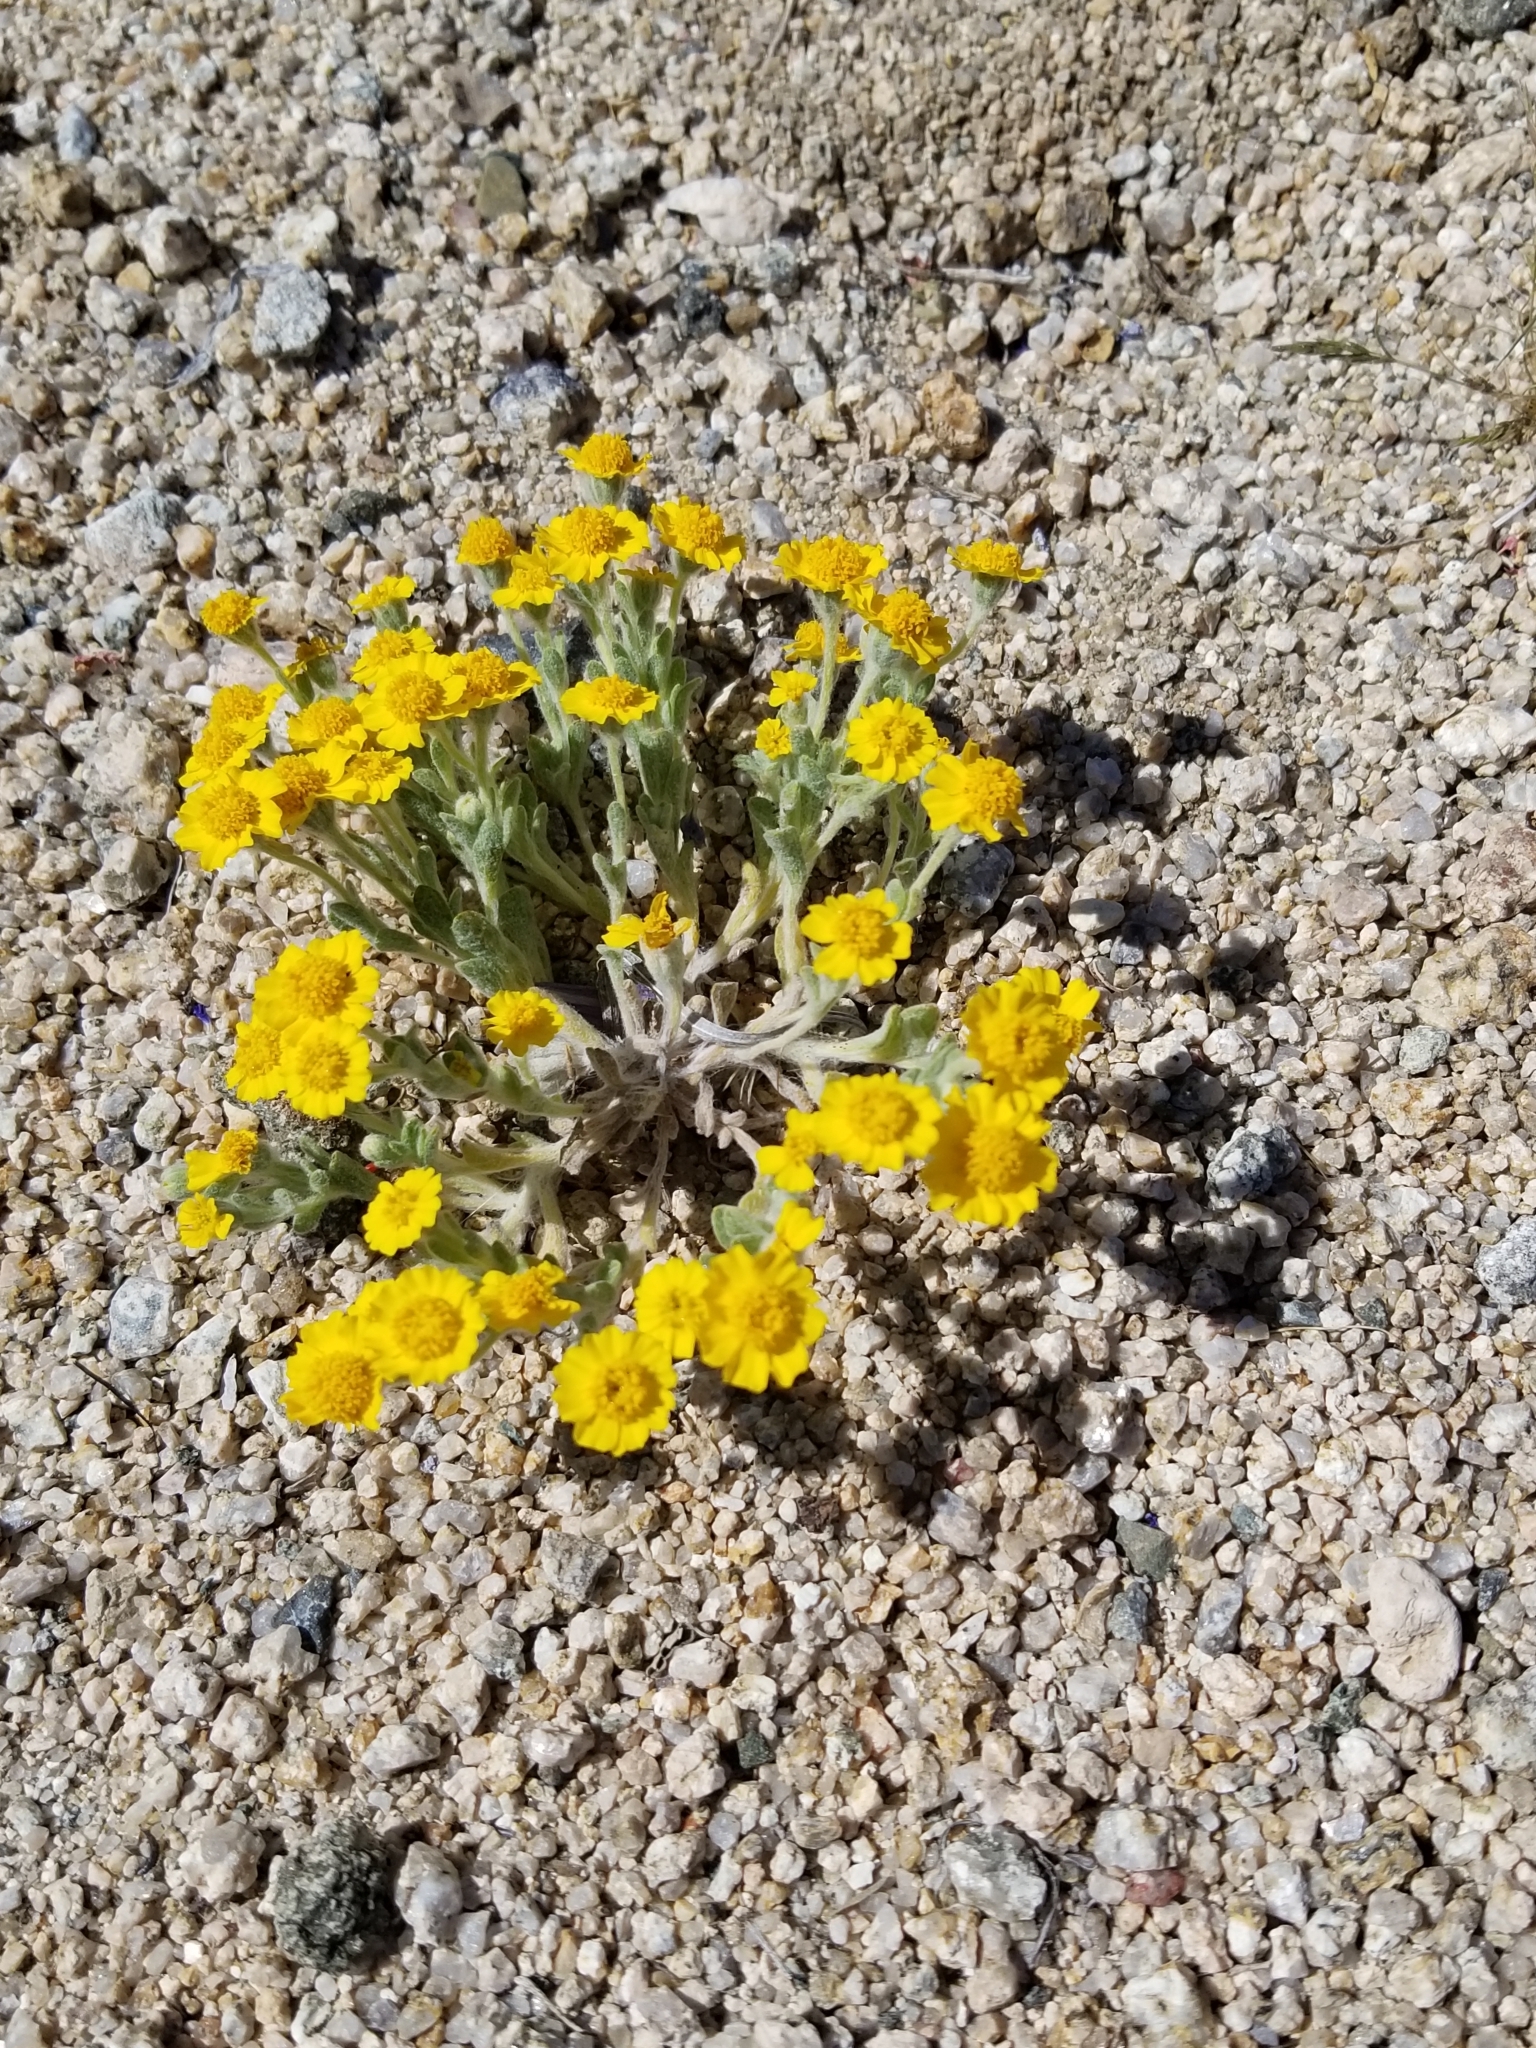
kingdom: Plantae
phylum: Tracheophyta
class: Magnoliopsida
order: Asterales
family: Asteraceae
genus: Eriophyllum
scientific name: Eriophyllum wallacei
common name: Wallace's woolly daisy
